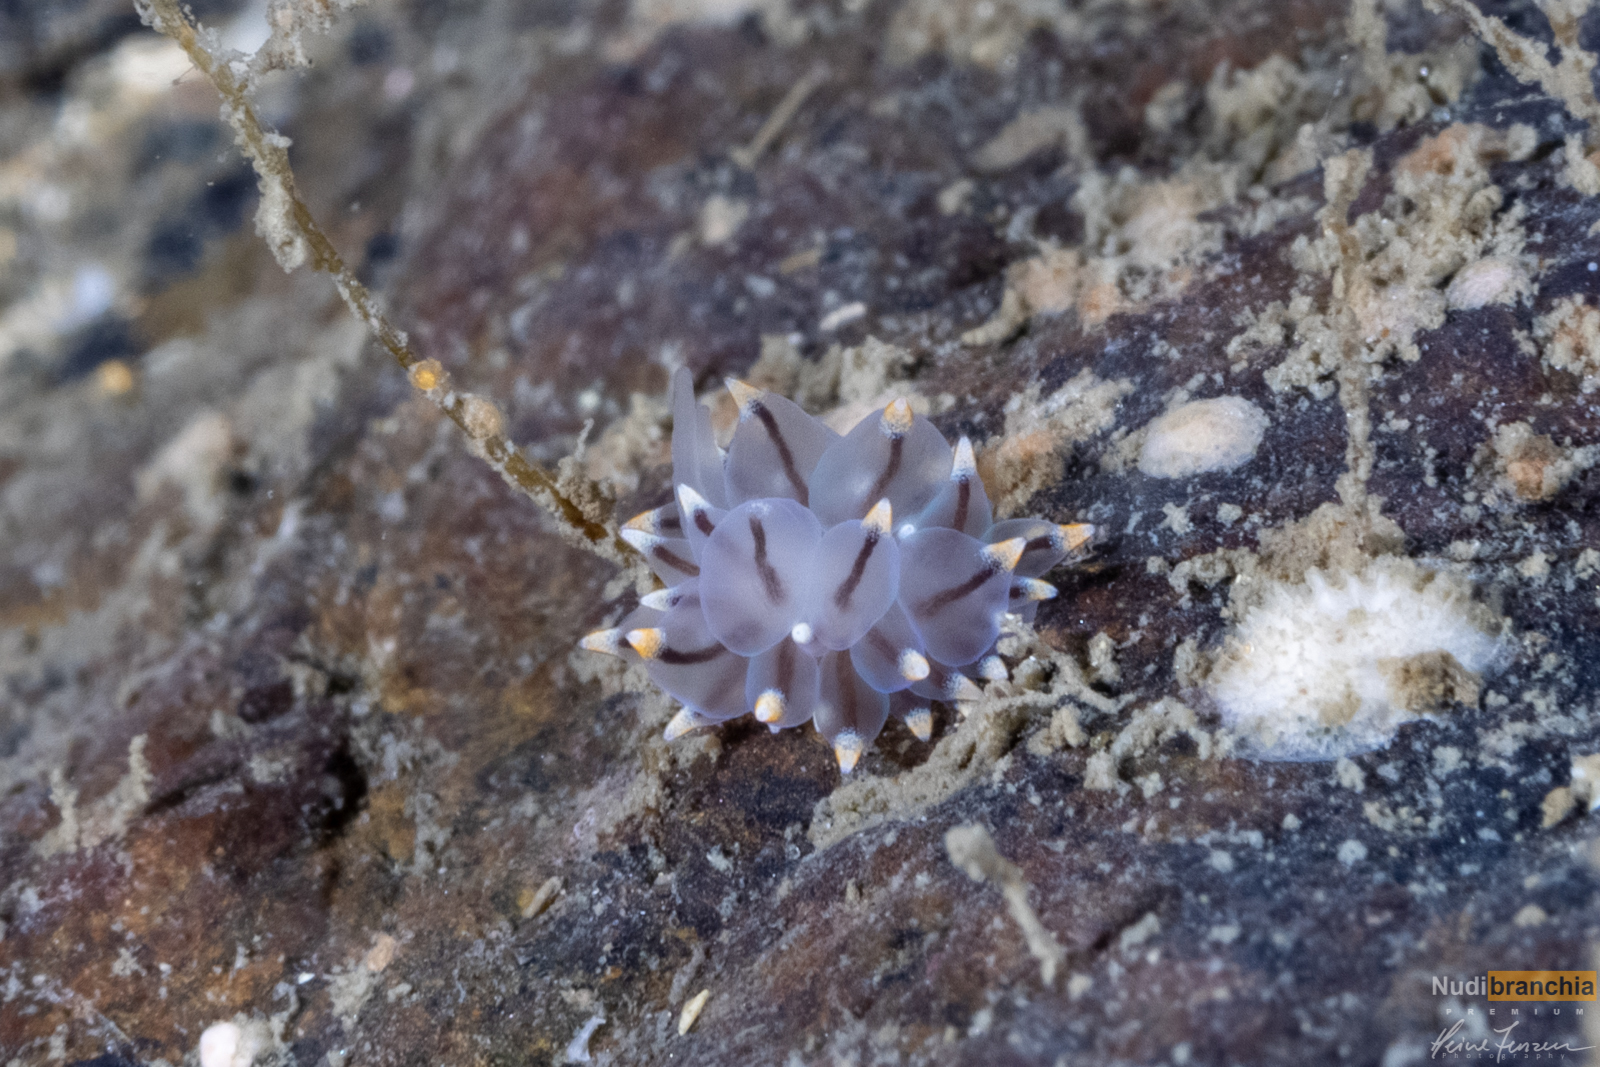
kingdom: Animalia
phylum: Mollusca
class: Gastropoda
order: Nudibranchia
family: Eubranchidae
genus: Eubranchus
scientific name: Eubranchus tricolor
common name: Painted balloon aeolis
